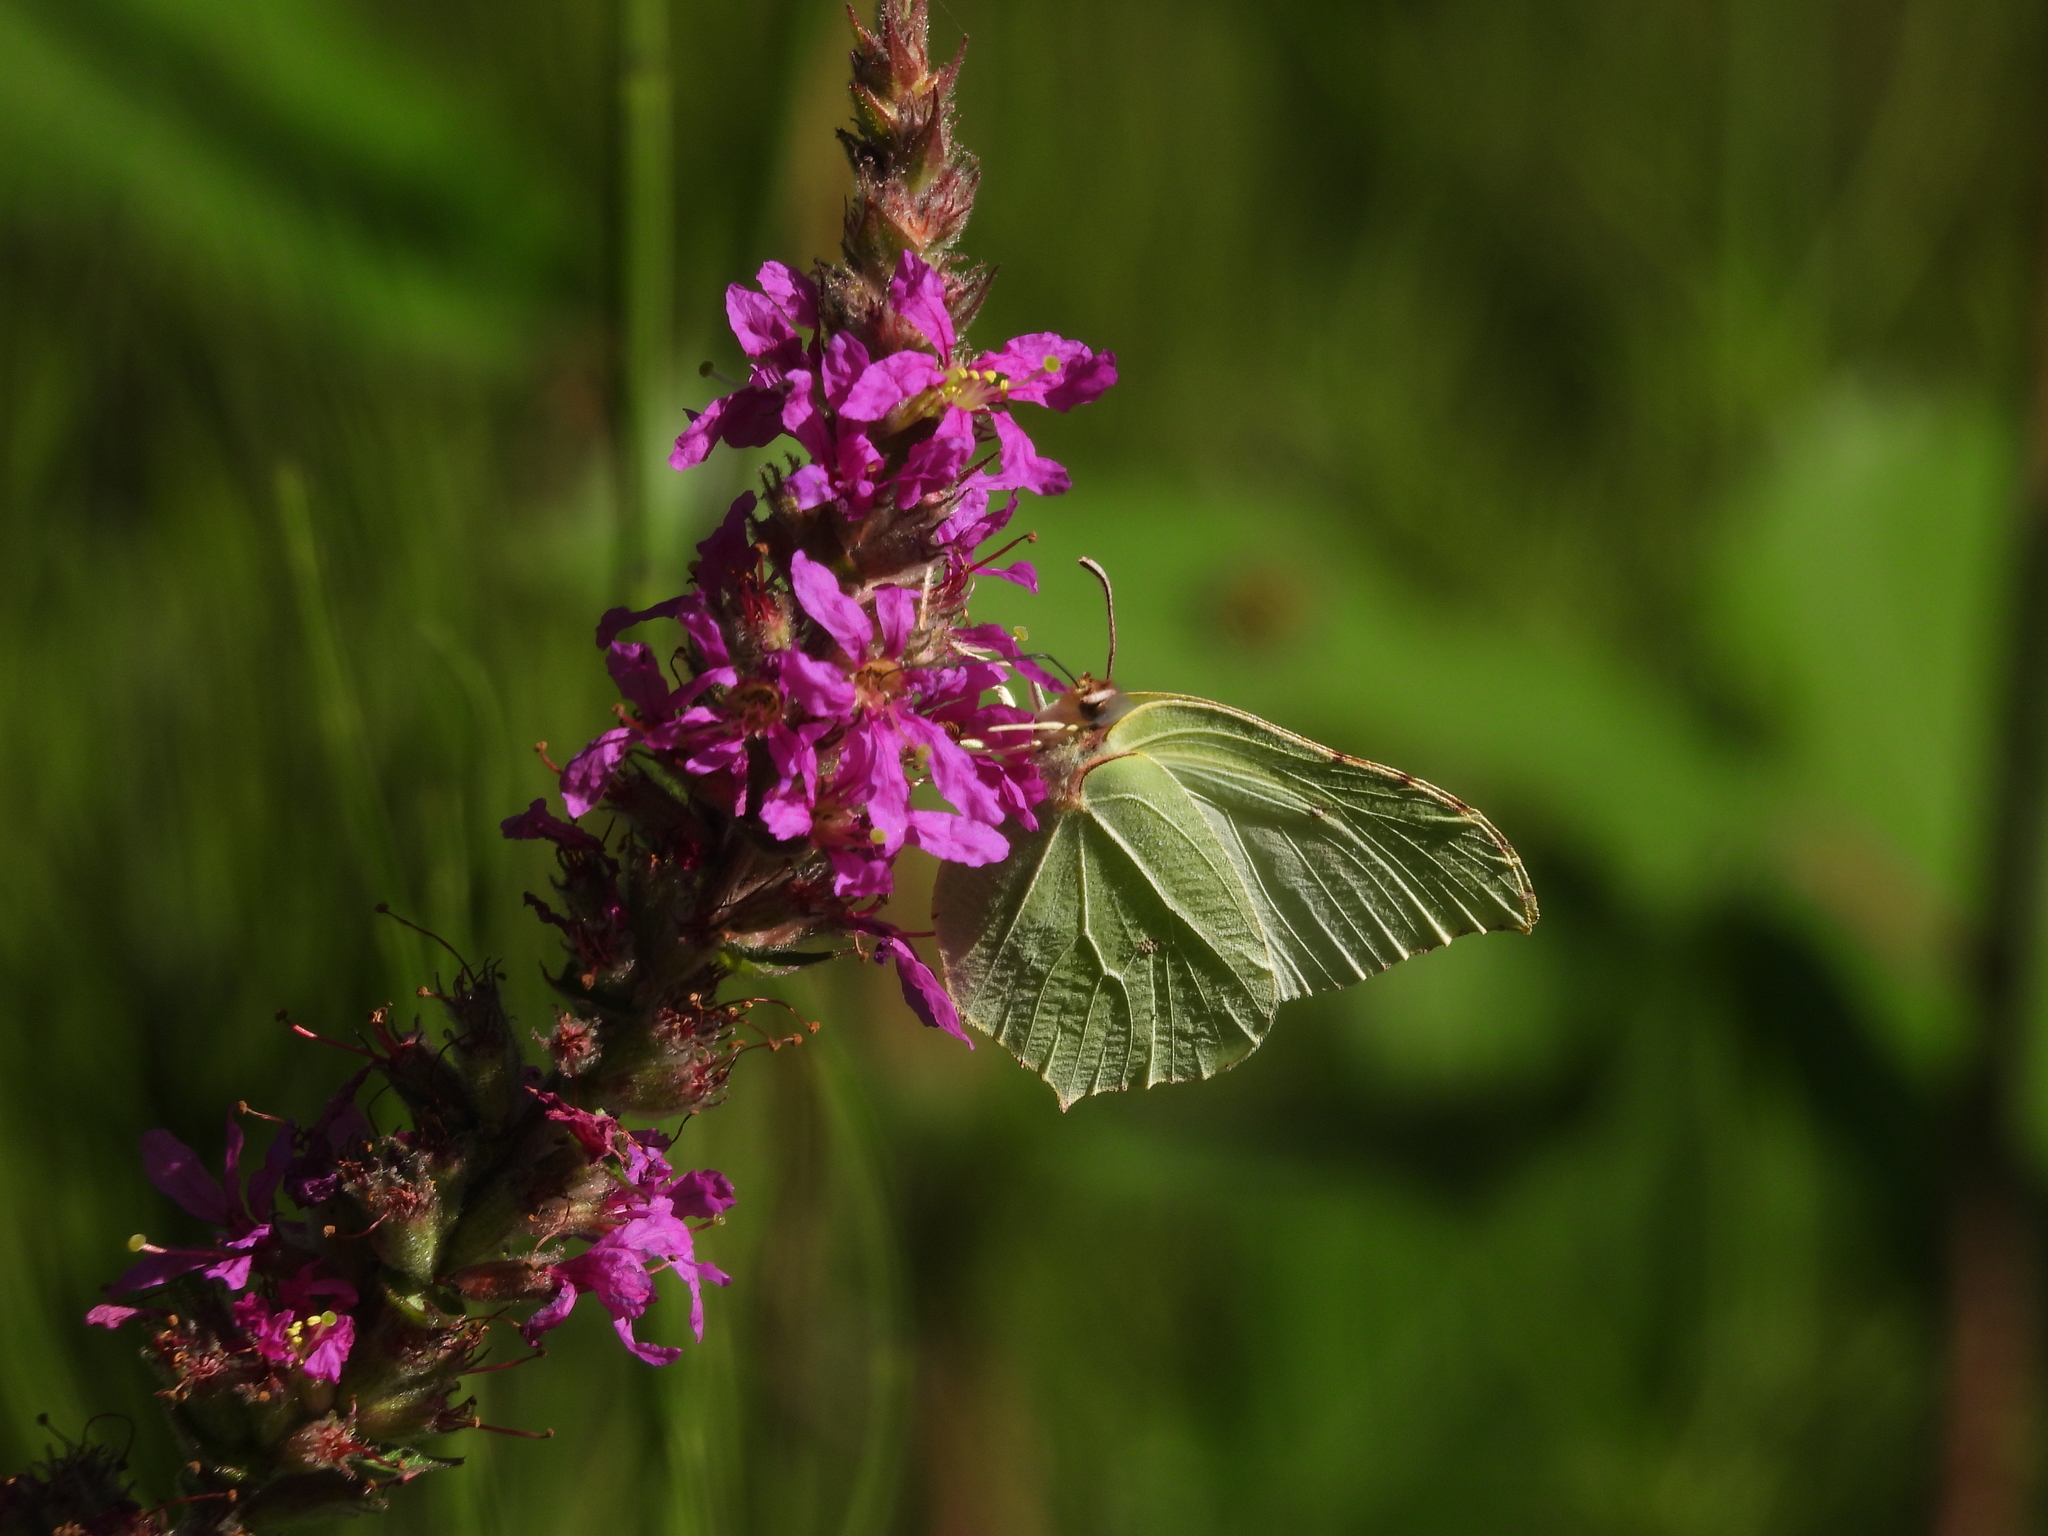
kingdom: Animalia
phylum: Arthropoda
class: Insecta
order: Lepidoptera
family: Pieridae
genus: Gonepteryx
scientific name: Gonepteryx rhamni
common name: Brimstone
